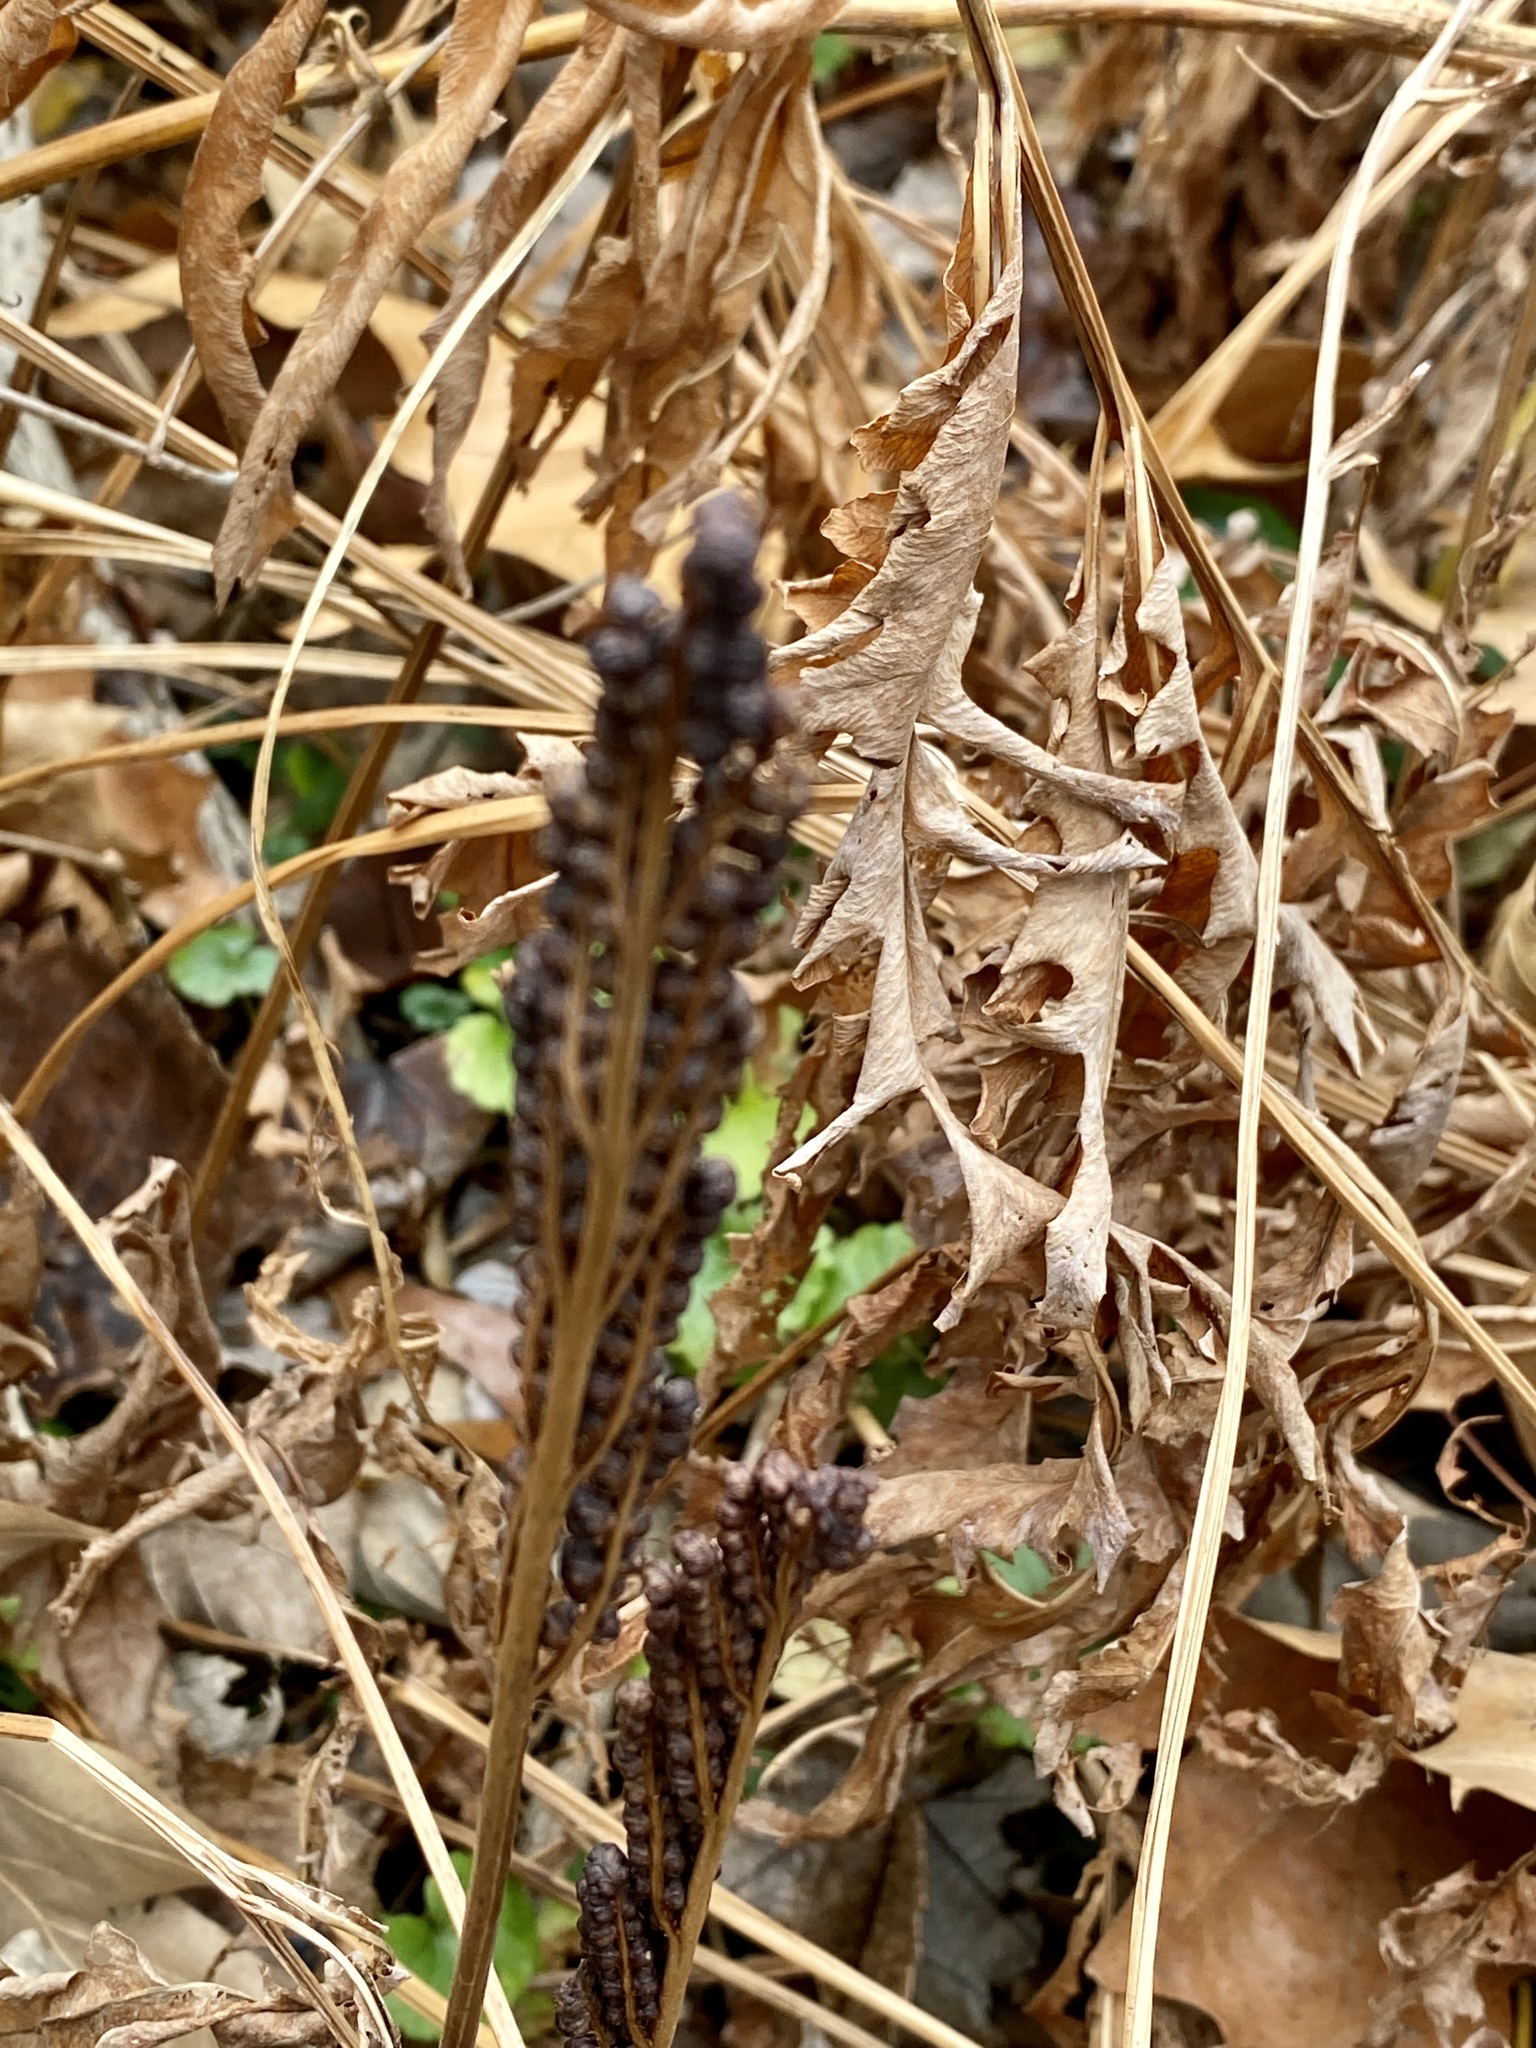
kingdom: Plantae
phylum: Tracheophyta
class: Polypodiopsida
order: Polypodiales
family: Onocleaceae
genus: Onoclea
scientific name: Onoclea sensibilis
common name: Sensitive fern
